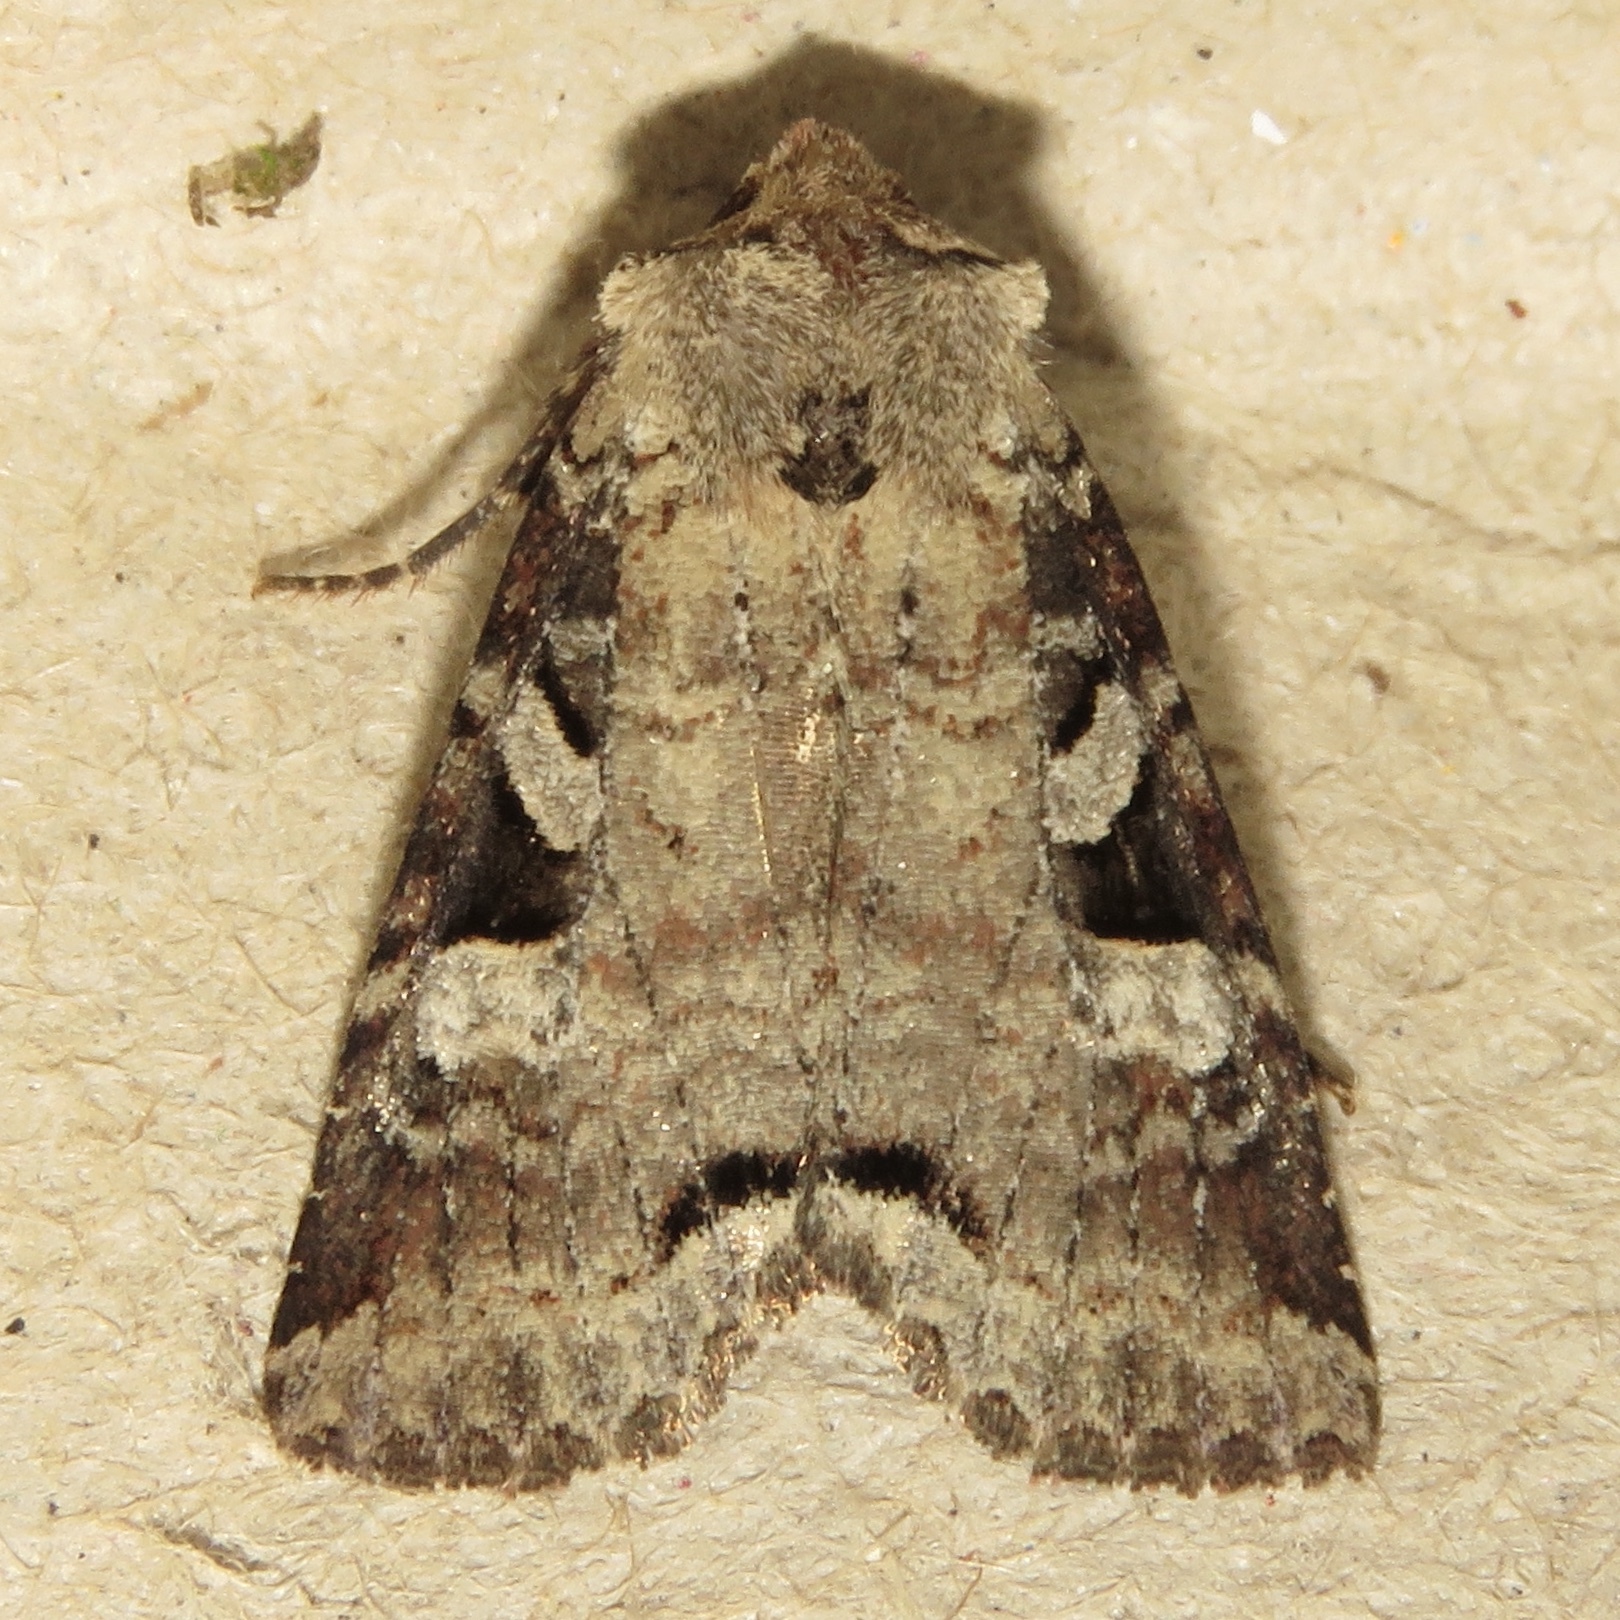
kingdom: Animalia
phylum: Arthropoda
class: Insecta
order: Lepidoptera
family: Noctuidae
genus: Hillia
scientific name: Hillia iris
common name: Iris rover moth
